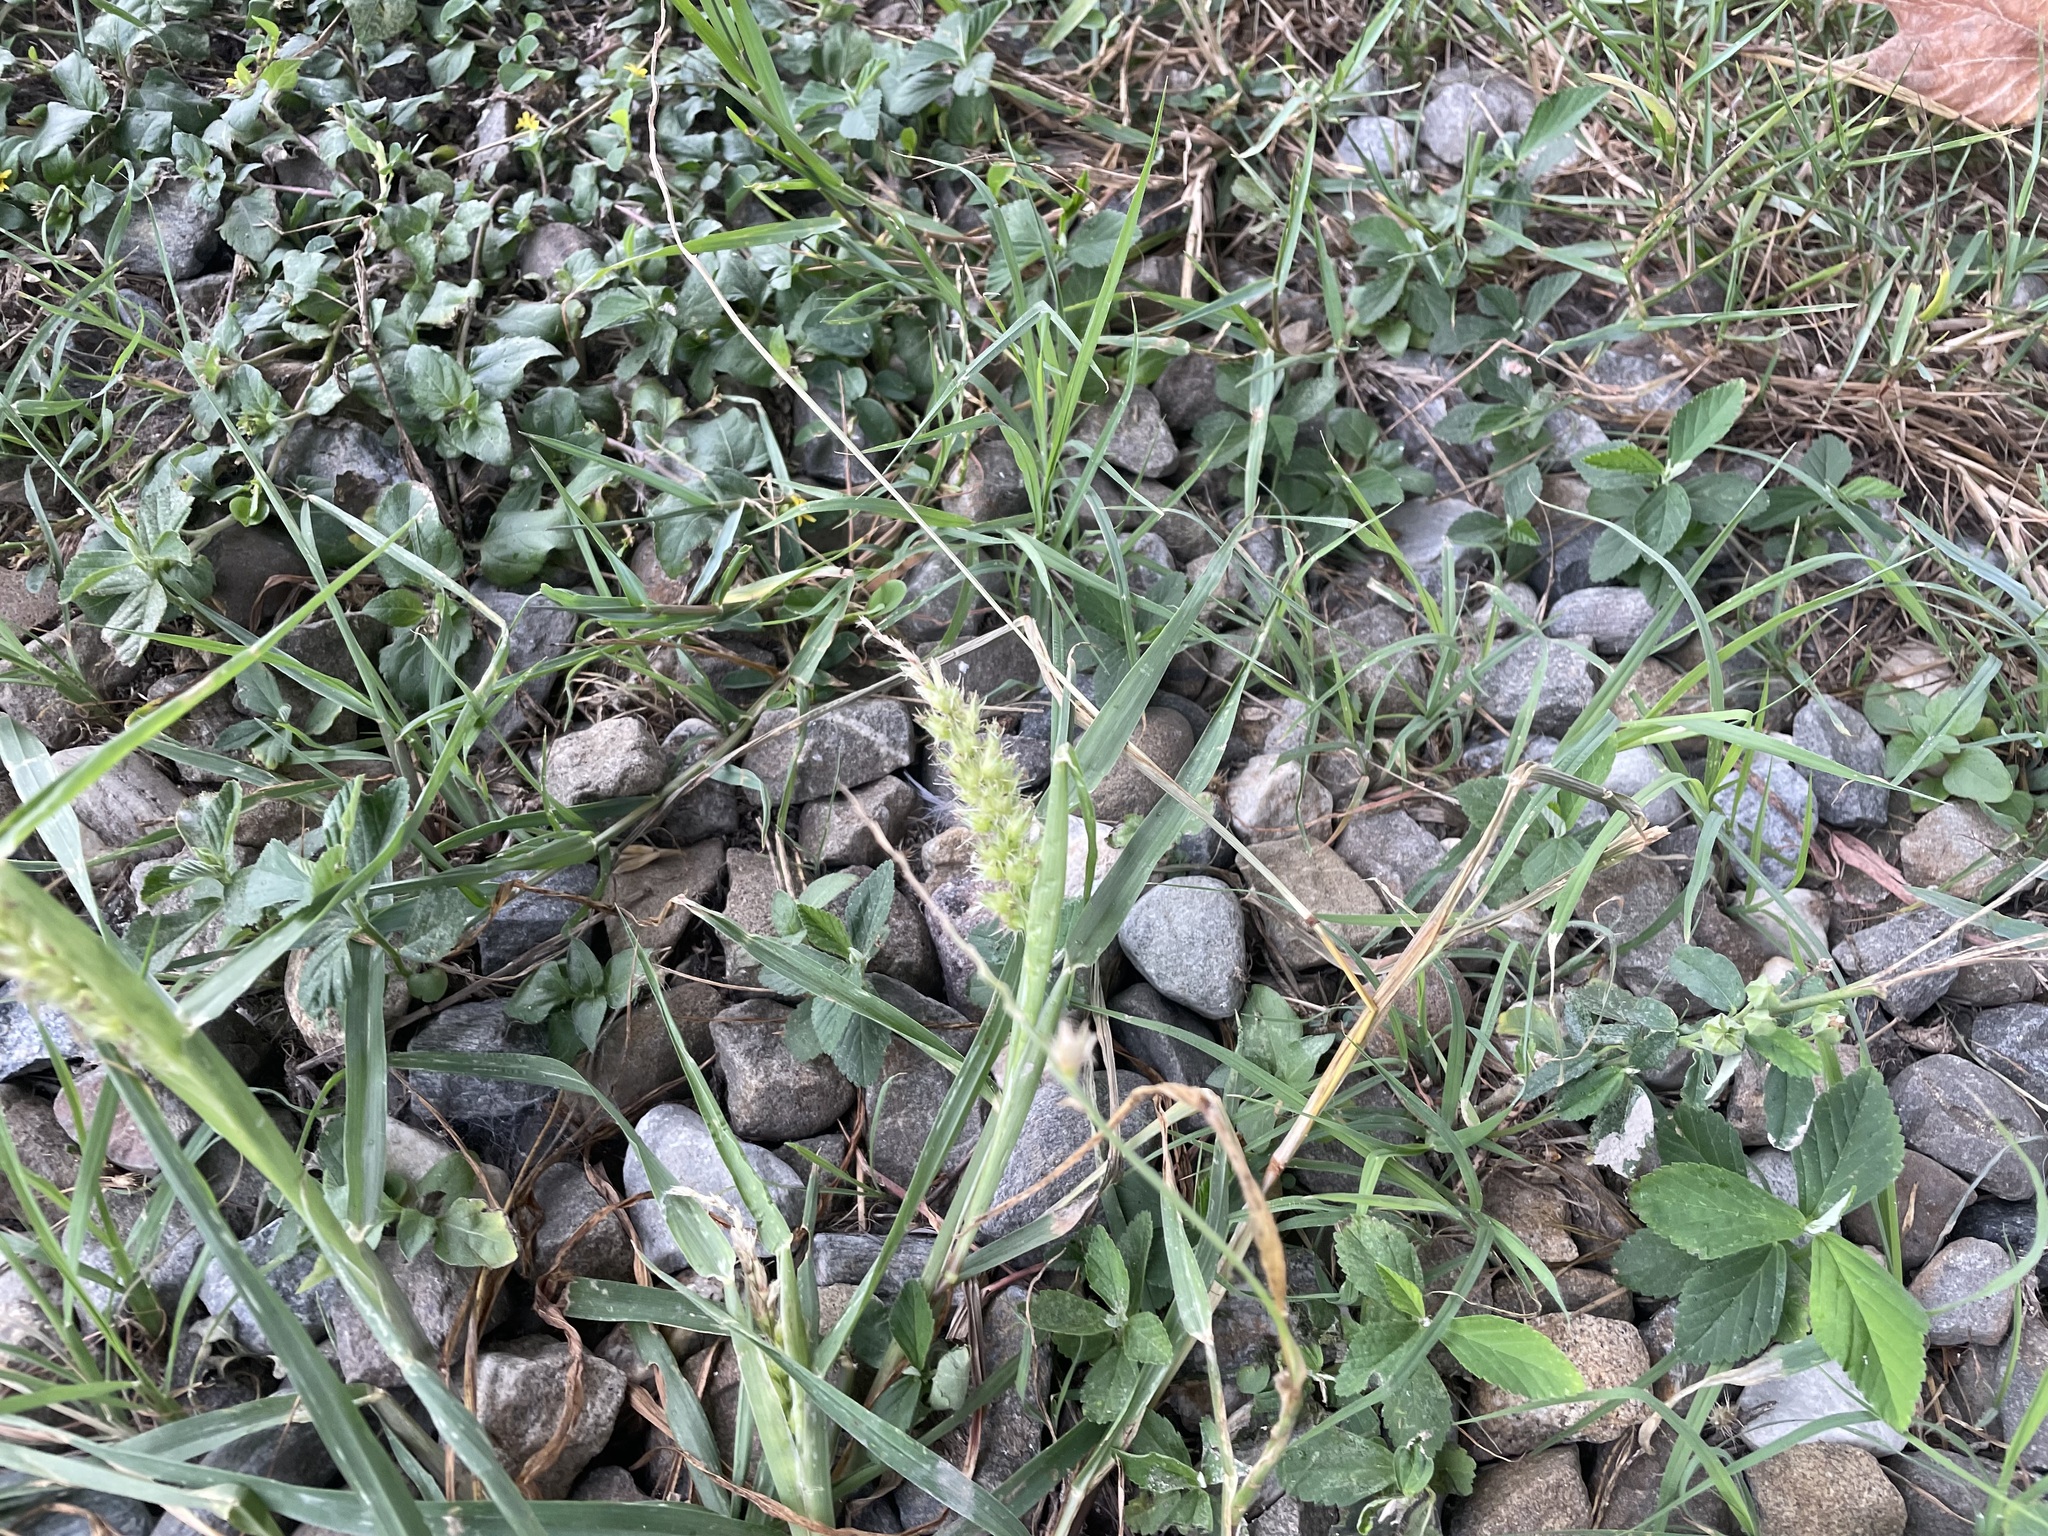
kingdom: Plantae
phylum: Tracheophyta
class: Liliopsida
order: Poales
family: Poaceae
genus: Cenchrus
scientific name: Cenchrus echinatus
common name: Southern sandbur
